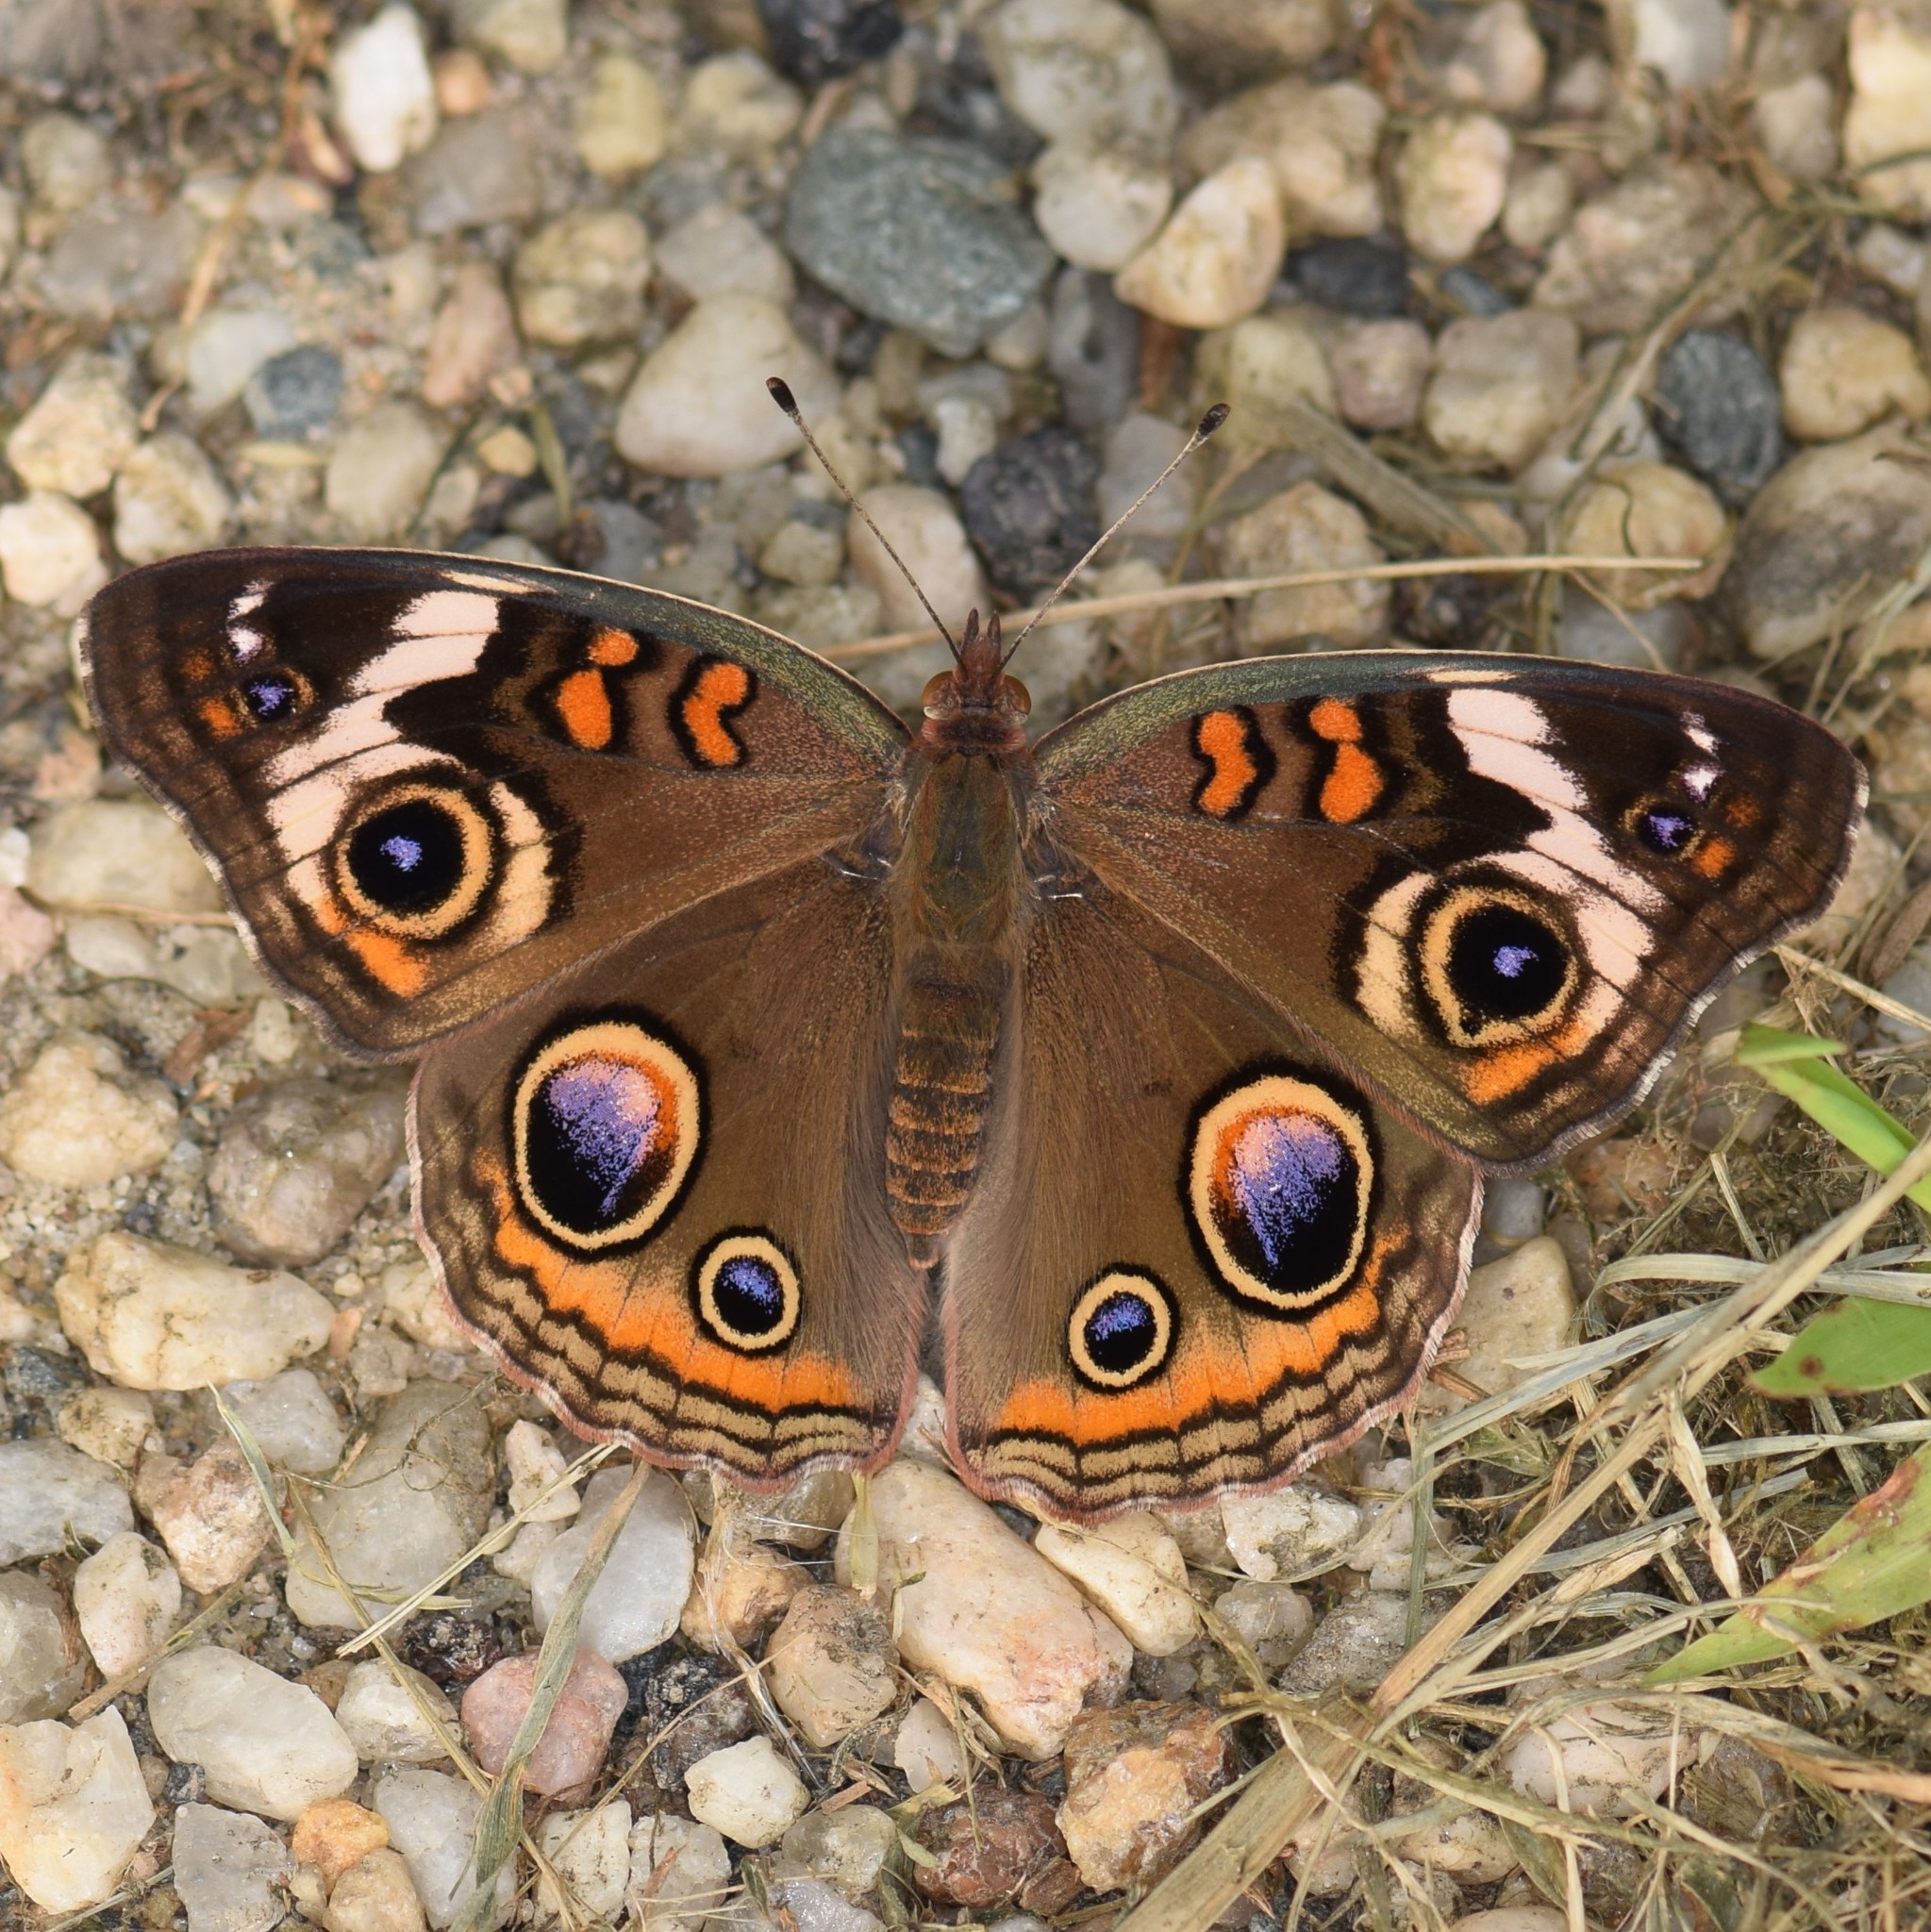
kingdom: Animalia
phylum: Arthropoda
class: Insecta
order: Lepidoptera
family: Nymphalidae
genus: Junonia
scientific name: Junonia coenia
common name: Common buckeye
